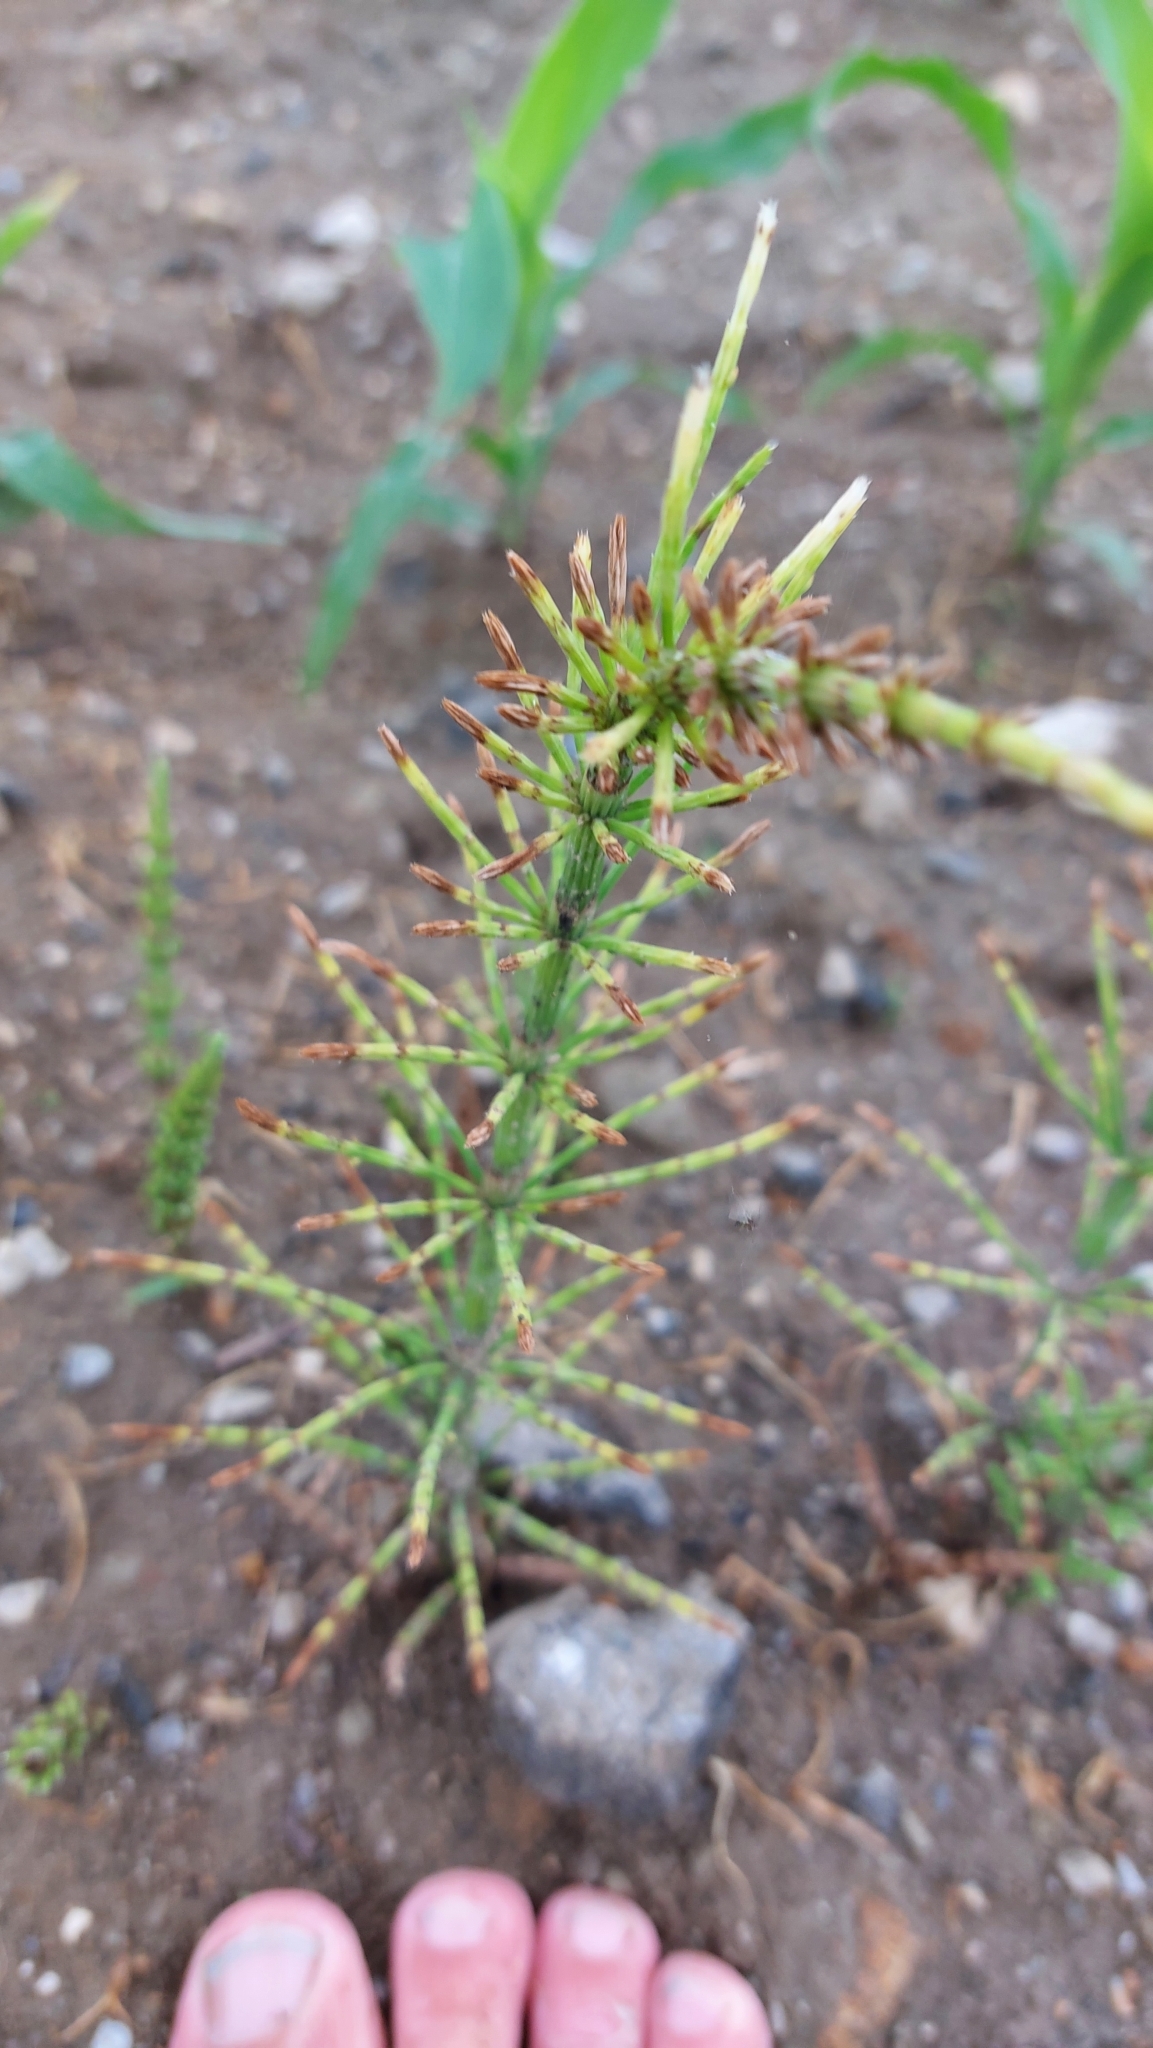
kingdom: Plantae
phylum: Tracheophyta
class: Polypodiopsida
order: Equisetales
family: Equisetaceae
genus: Equisetum
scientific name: Equisetum arvense
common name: Field horsetail
